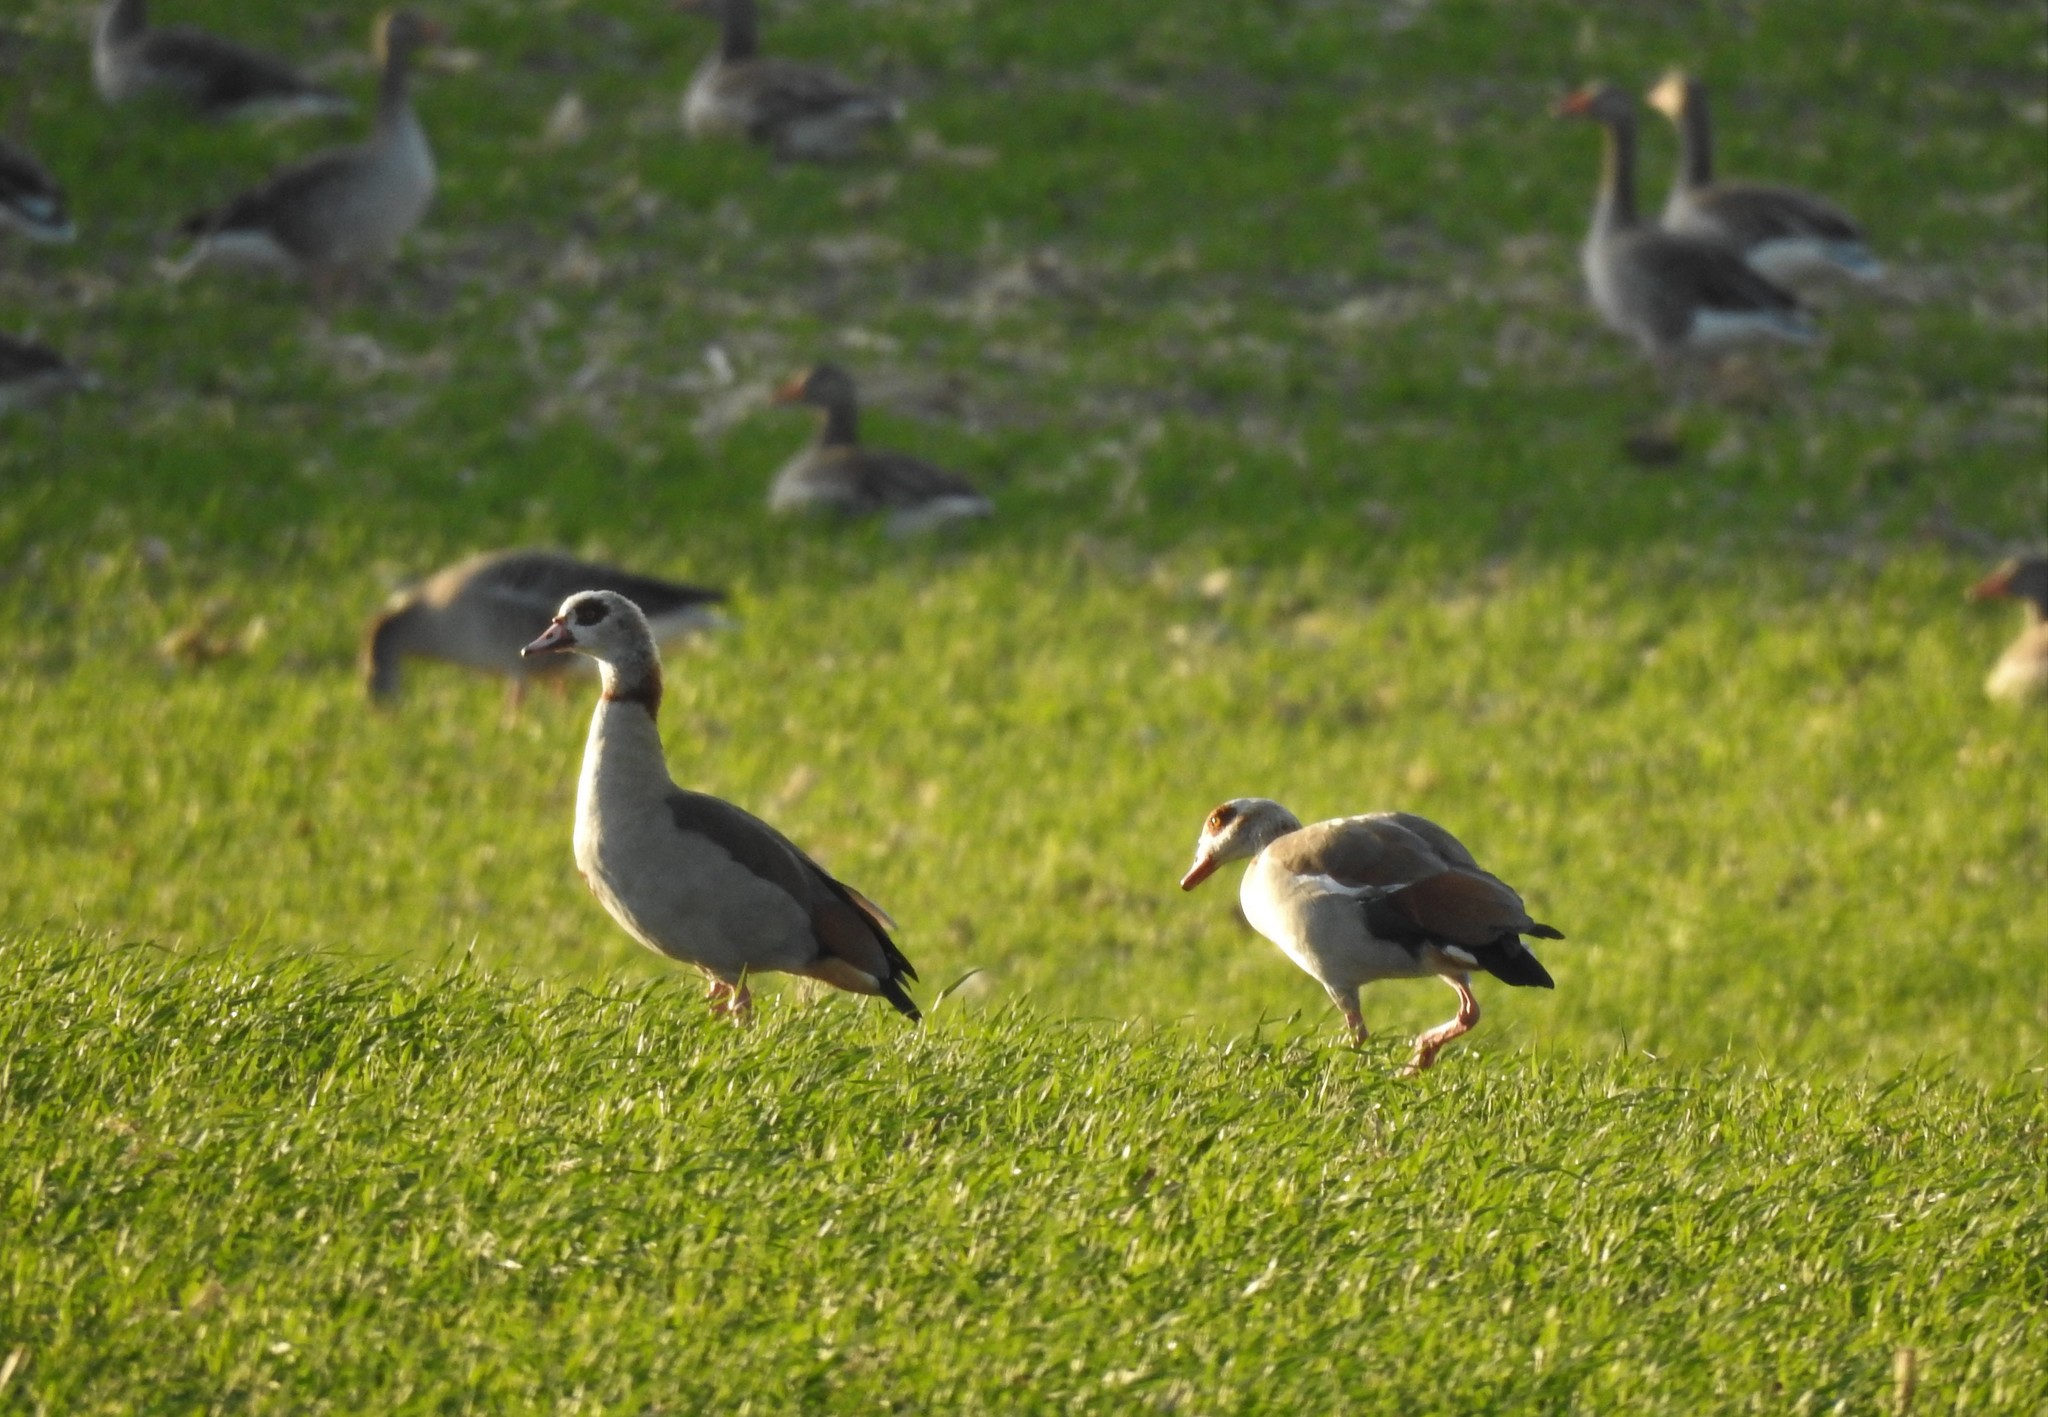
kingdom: Animalia
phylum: Chordata
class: Aves
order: Anseriformes
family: Anatidae
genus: Alopochen
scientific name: Alopochen aegyptiaca
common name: Egyptian goose
